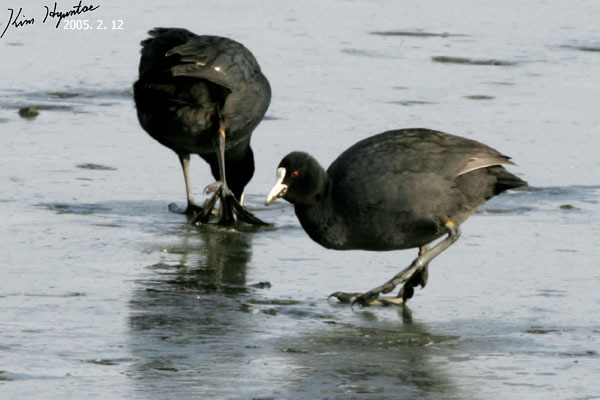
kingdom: Animalia
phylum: Chordata
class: Aves
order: Gruiformes
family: Rallidae
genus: Fulica
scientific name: Fulica atra
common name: Eurasian coot
